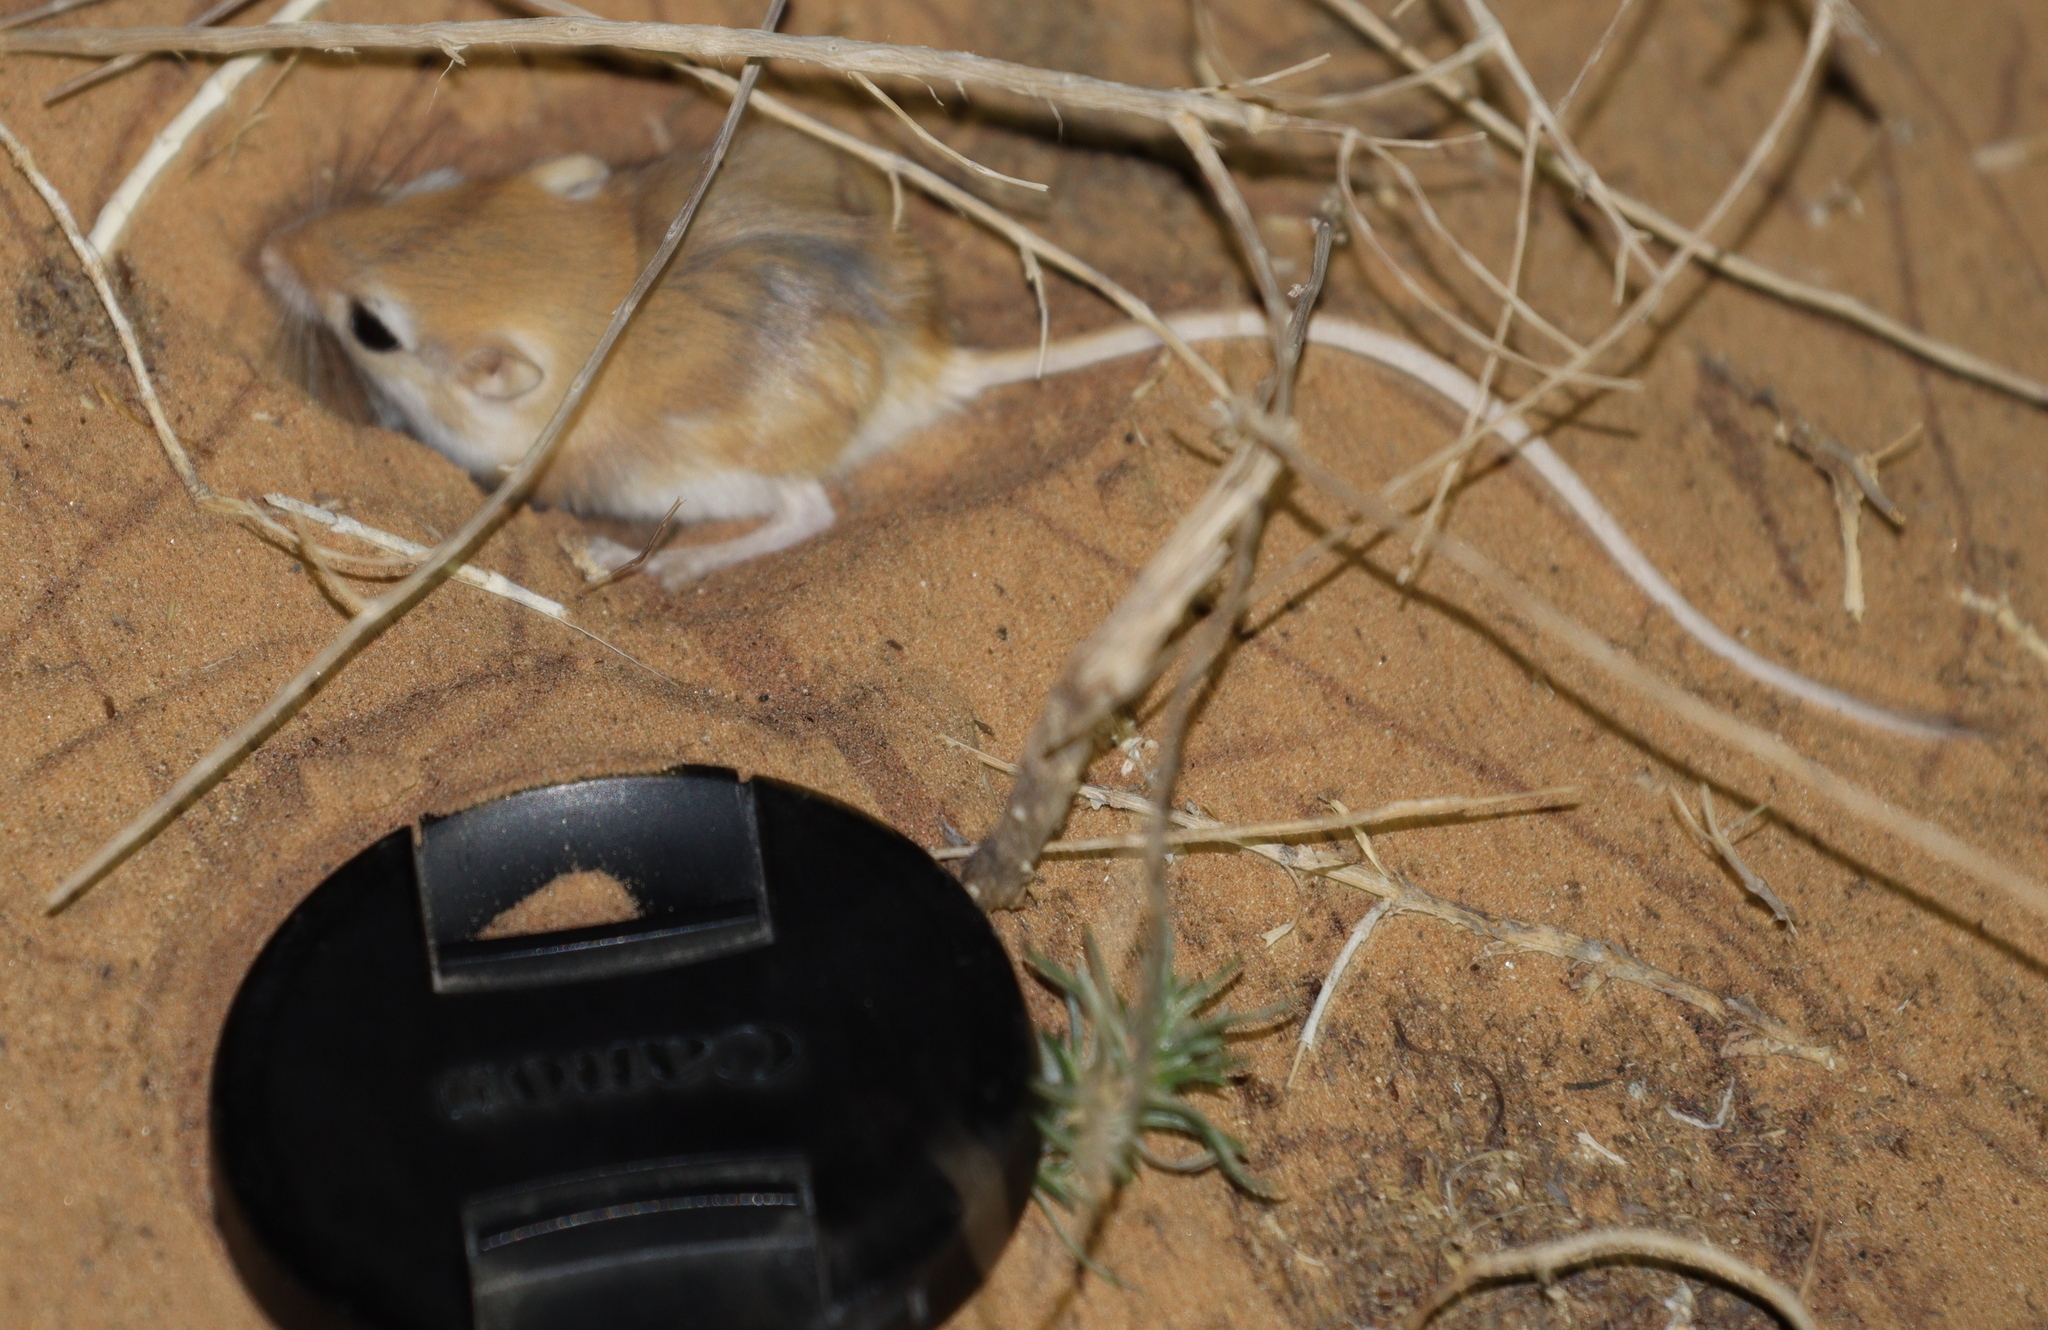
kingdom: Animalia
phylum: Chordata
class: Mammalia
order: Rodentia
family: Muridae
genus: Gerbillus
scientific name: Gerbillus henleyi
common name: Pygmy gerbil
